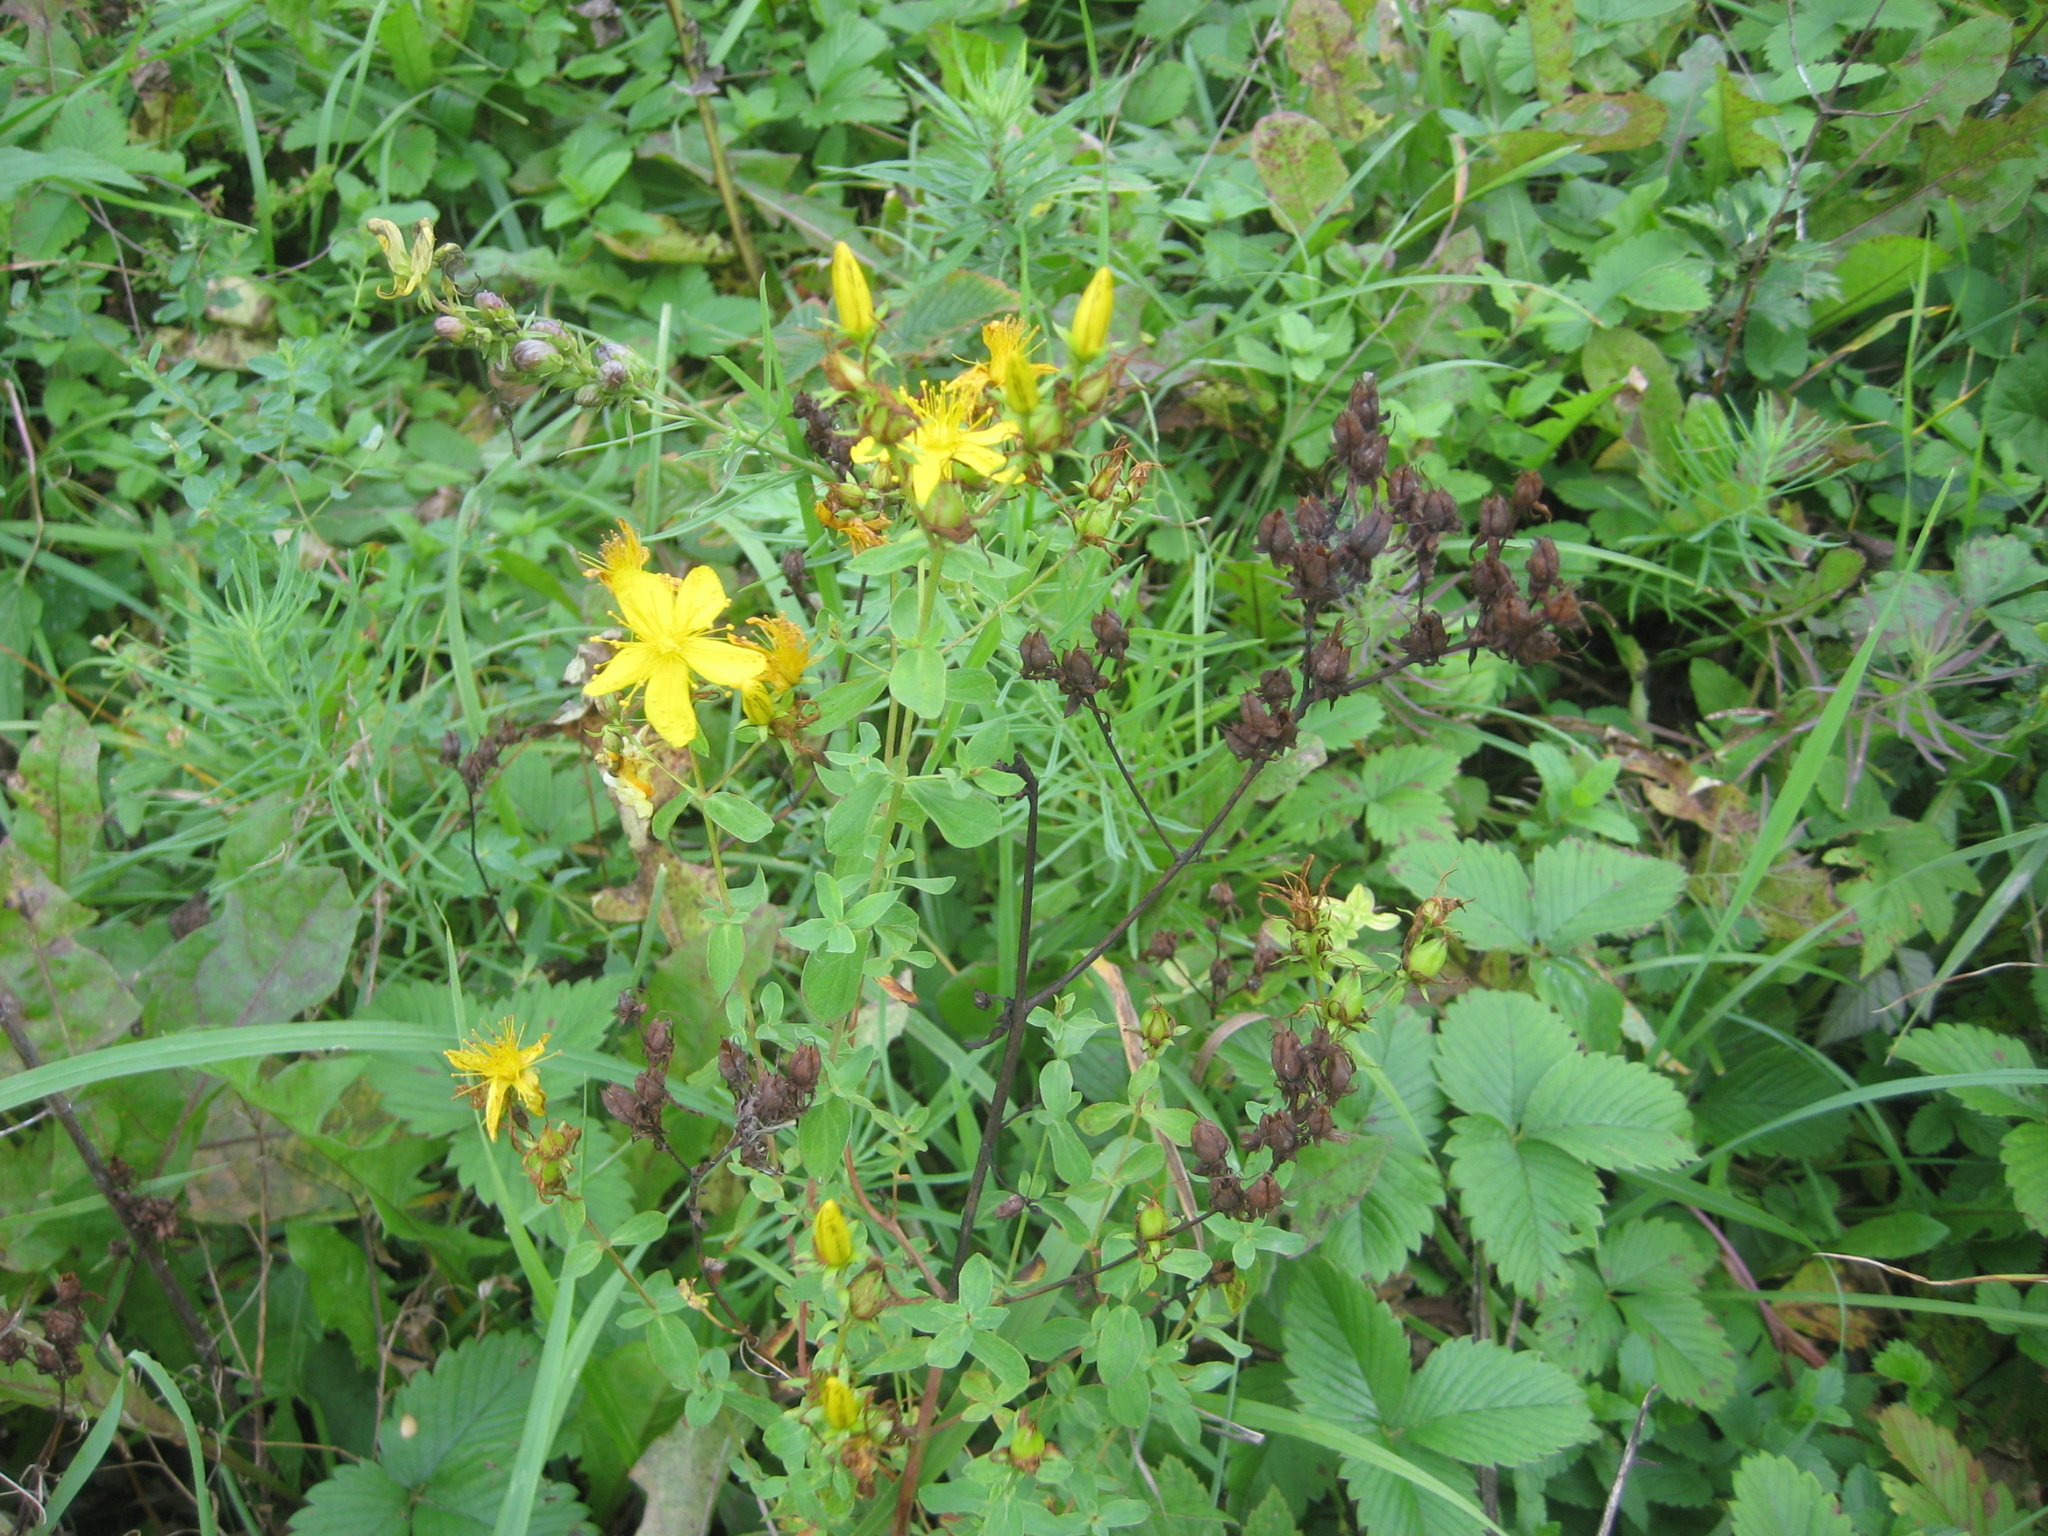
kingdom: Plantae
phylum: Tracheophyta
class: Magnoliopsida
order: Malpighiales
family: Hypericaceae
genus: Hypericum
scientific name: Hypericum perforatum
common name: Common st. johnswort
